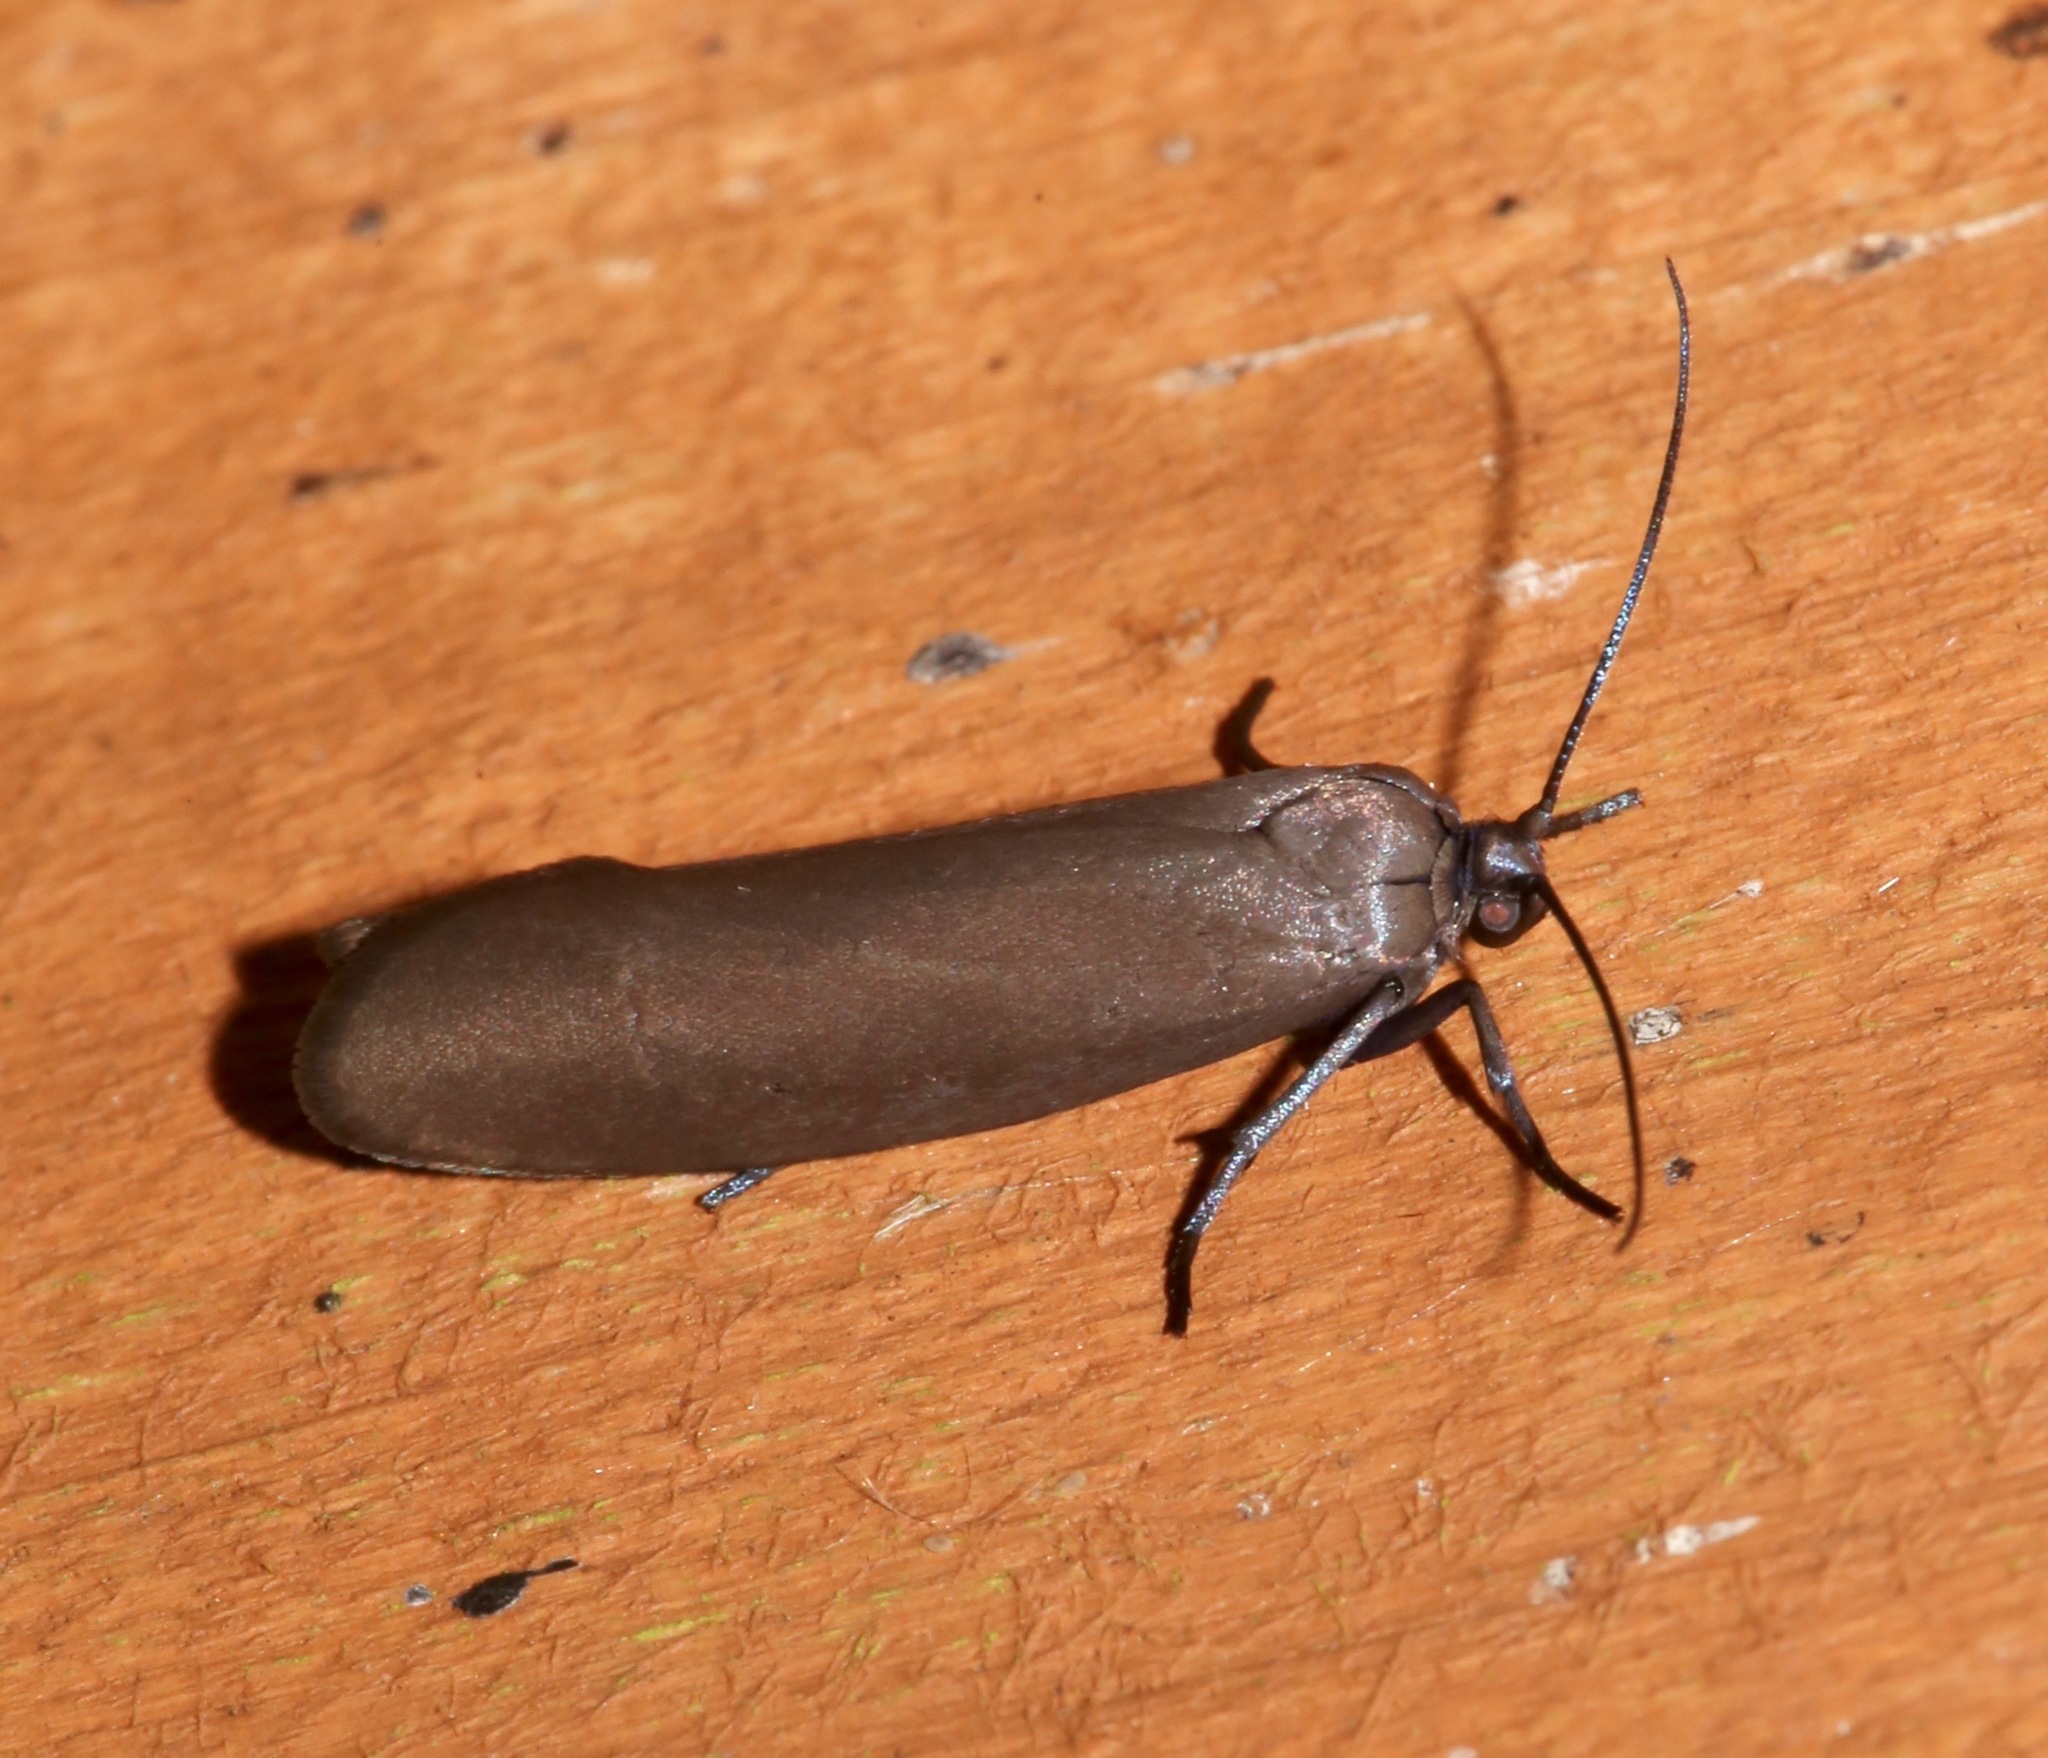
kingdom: Animalia
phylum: Arthropoda
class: Insecta
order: Lepidoptera
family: Urodidae
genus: Urodus
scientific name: Urodus parvula
